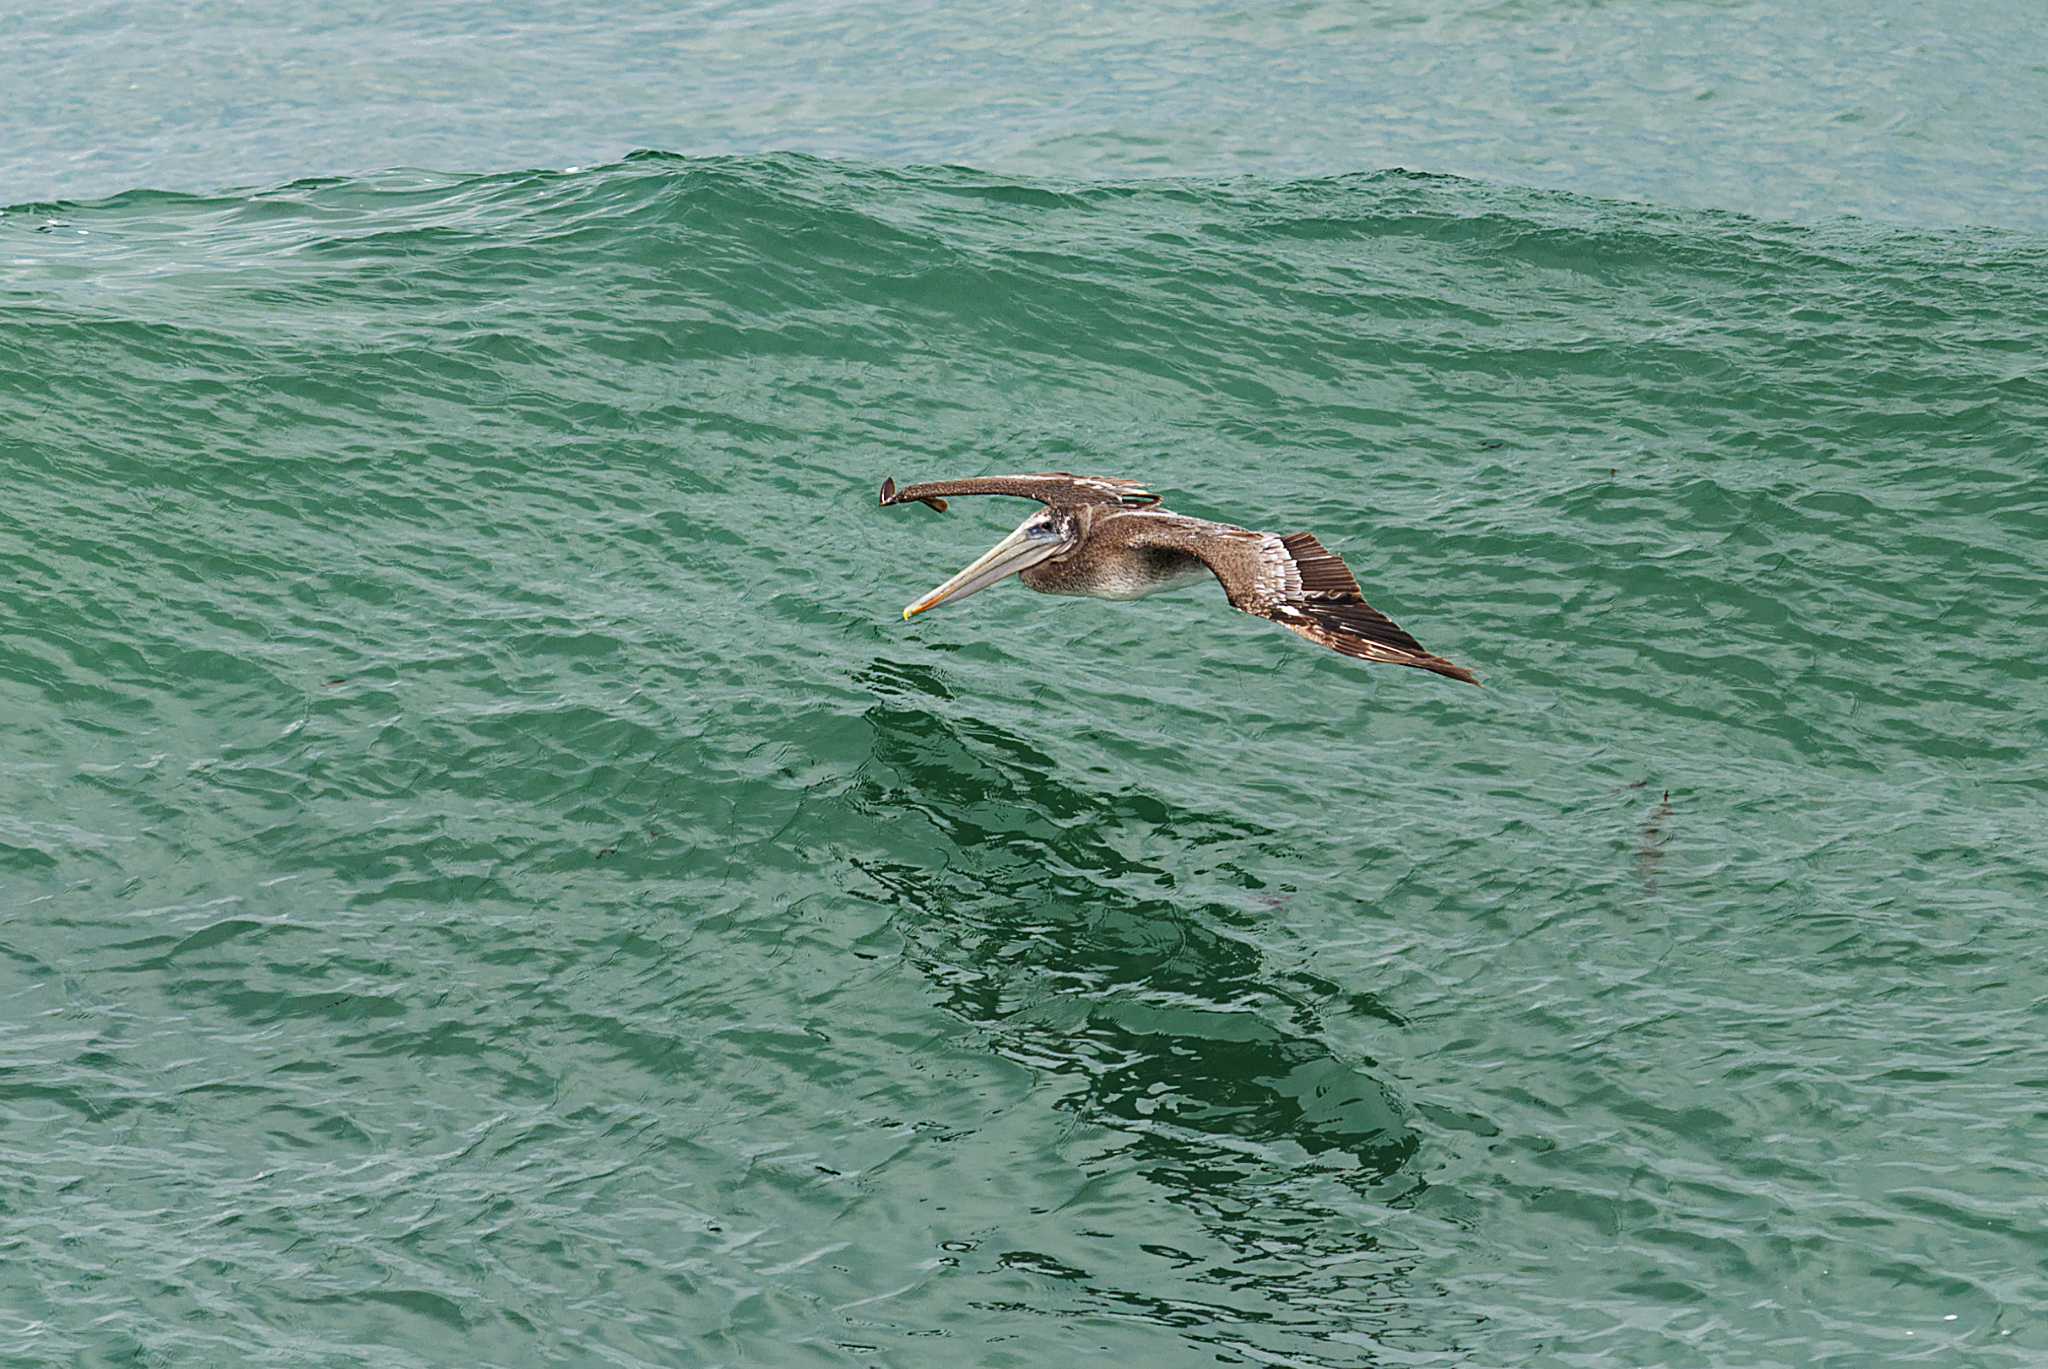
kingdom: Animalia
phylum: Chordata
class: Aves
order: Pelecaniformes
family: Pelecanidae
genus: Pelecanus
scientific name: Pelecanus occidentalis
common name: Brown pelican
